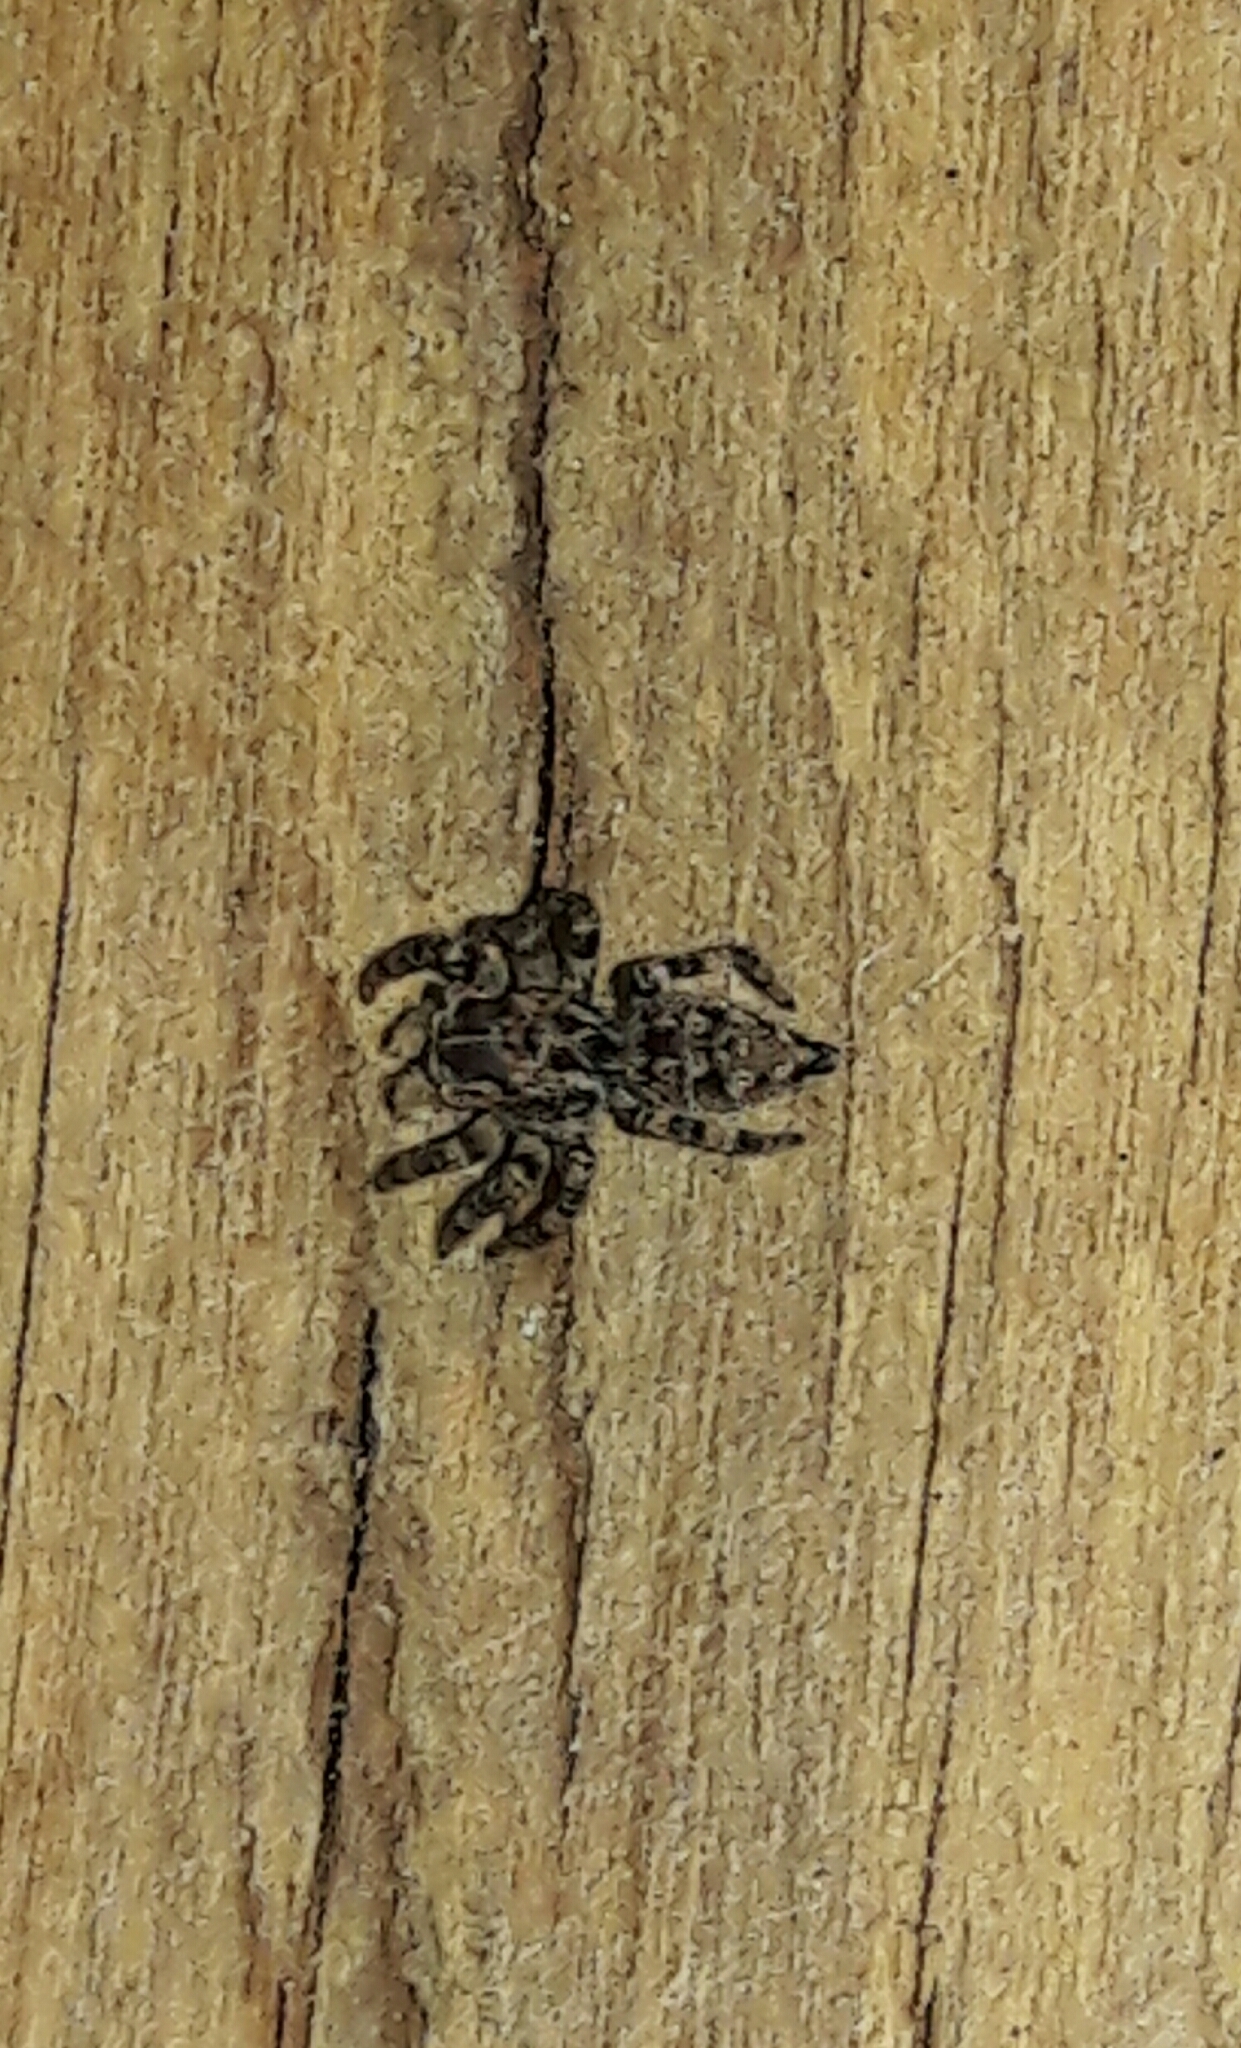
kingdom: Animalia
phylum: Arthropoda
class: Arachnida
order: Araneae
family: Salticidae
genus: Sumampattus
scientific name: Sumampattus quinqueradiatus
